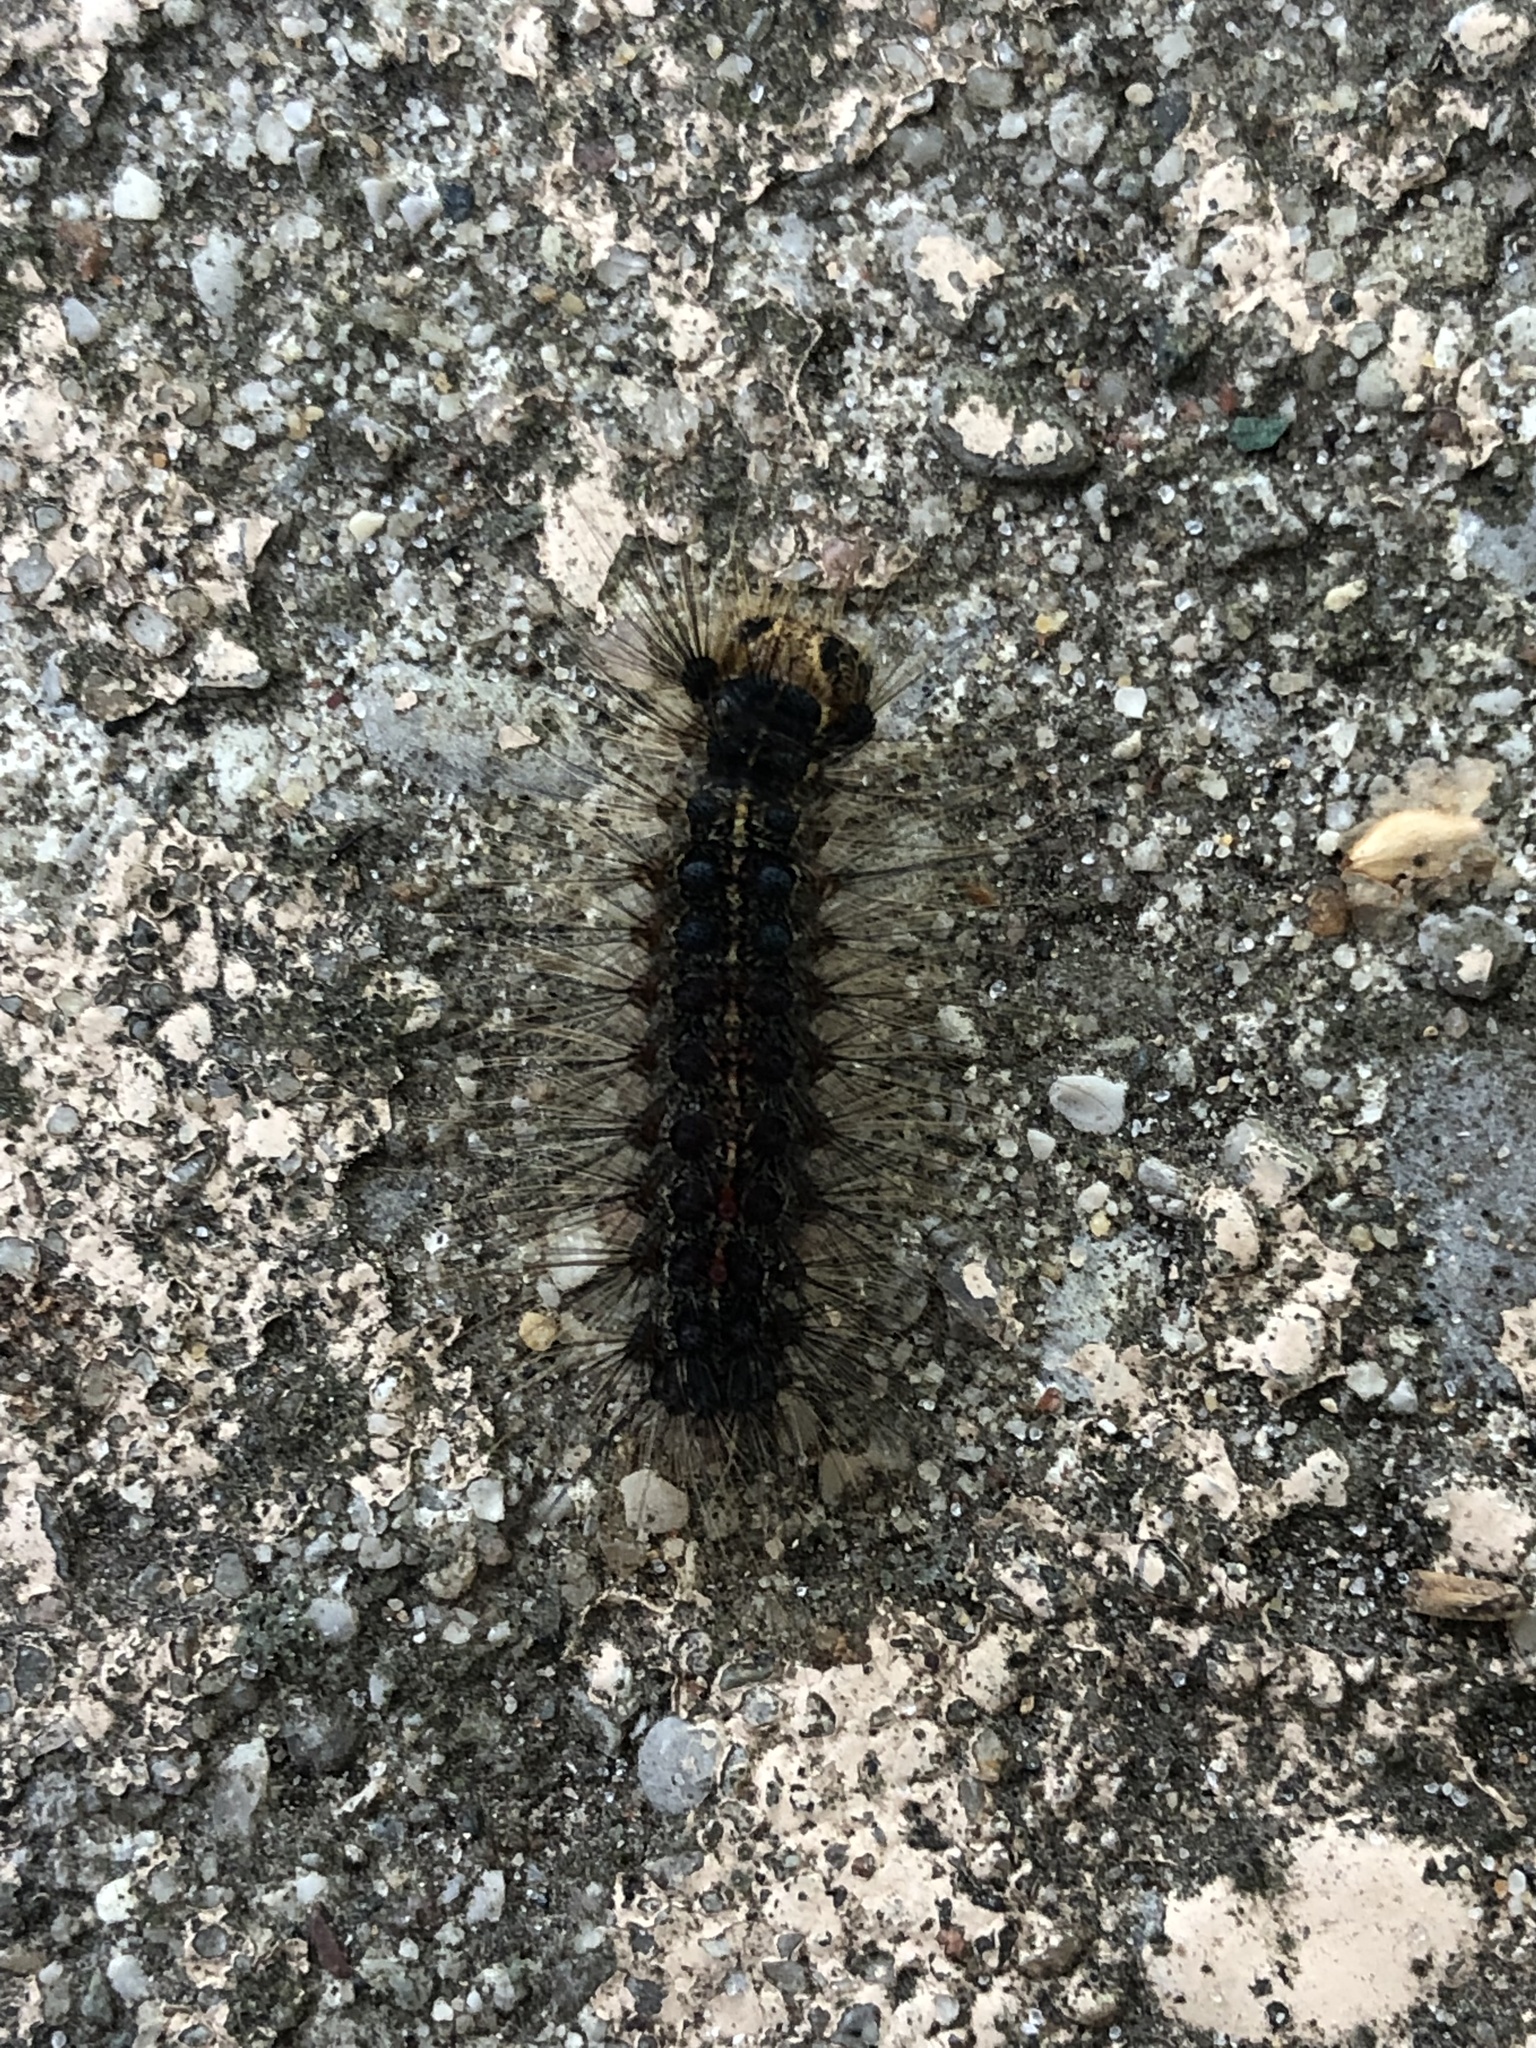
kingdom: Animalia
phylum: Arthropoda
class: Insecta
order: Lepidoptera
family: Erebidae
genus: Lymantria
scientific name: Lymantria dispar
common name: Gypsy moth
